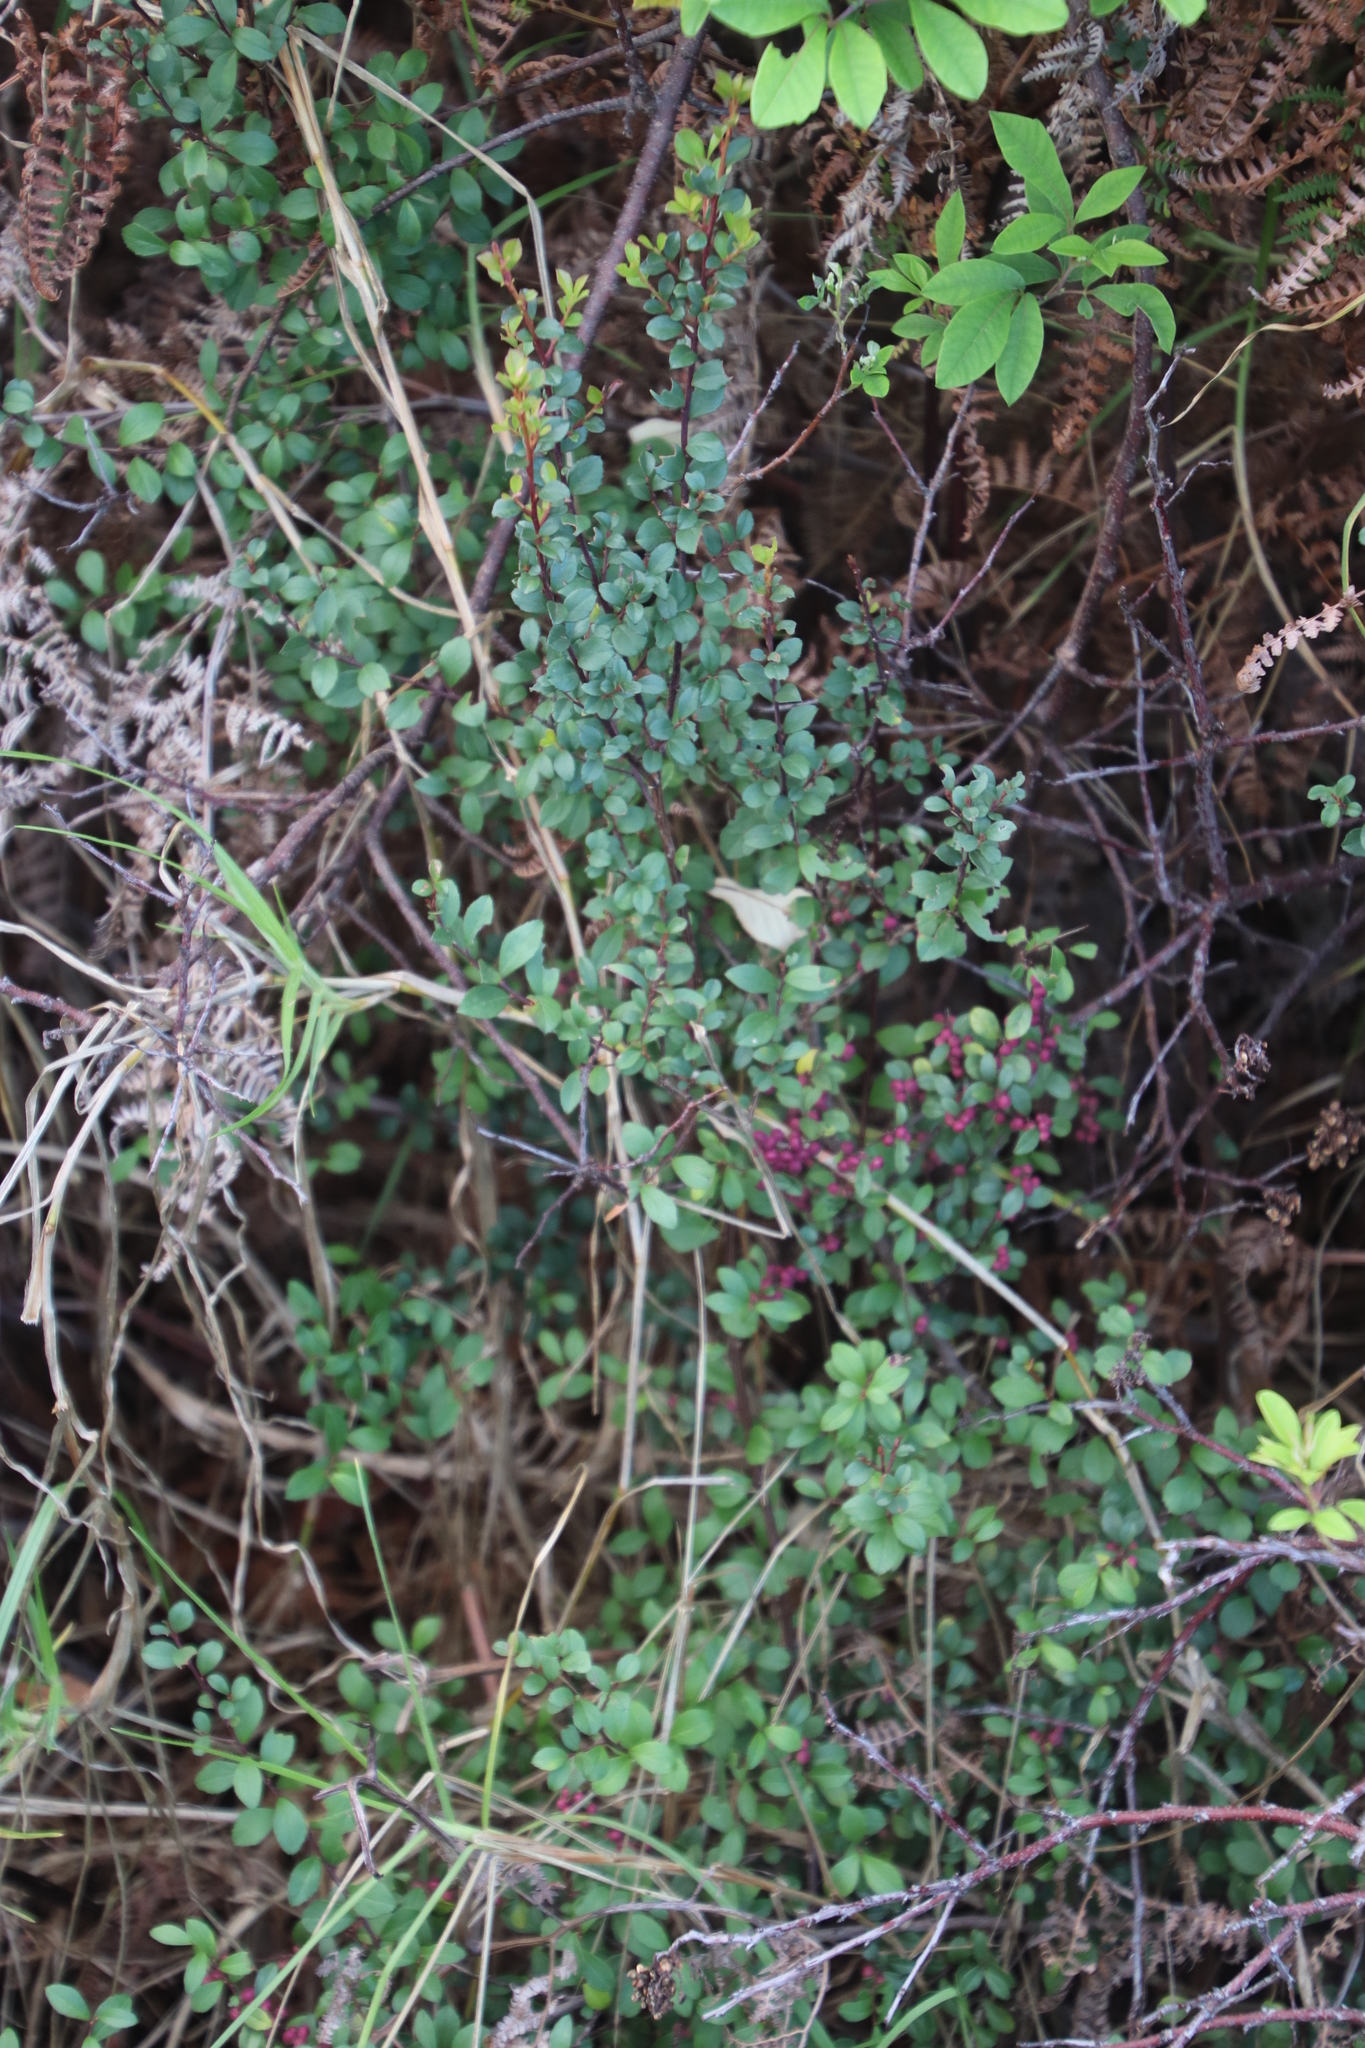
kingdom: Plantae
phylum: Tracheophyta
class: Magnoliopsida
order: Ericales
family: Primulaceae
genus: Myrsine
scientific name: Myrsine africana
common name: African-boxwood
